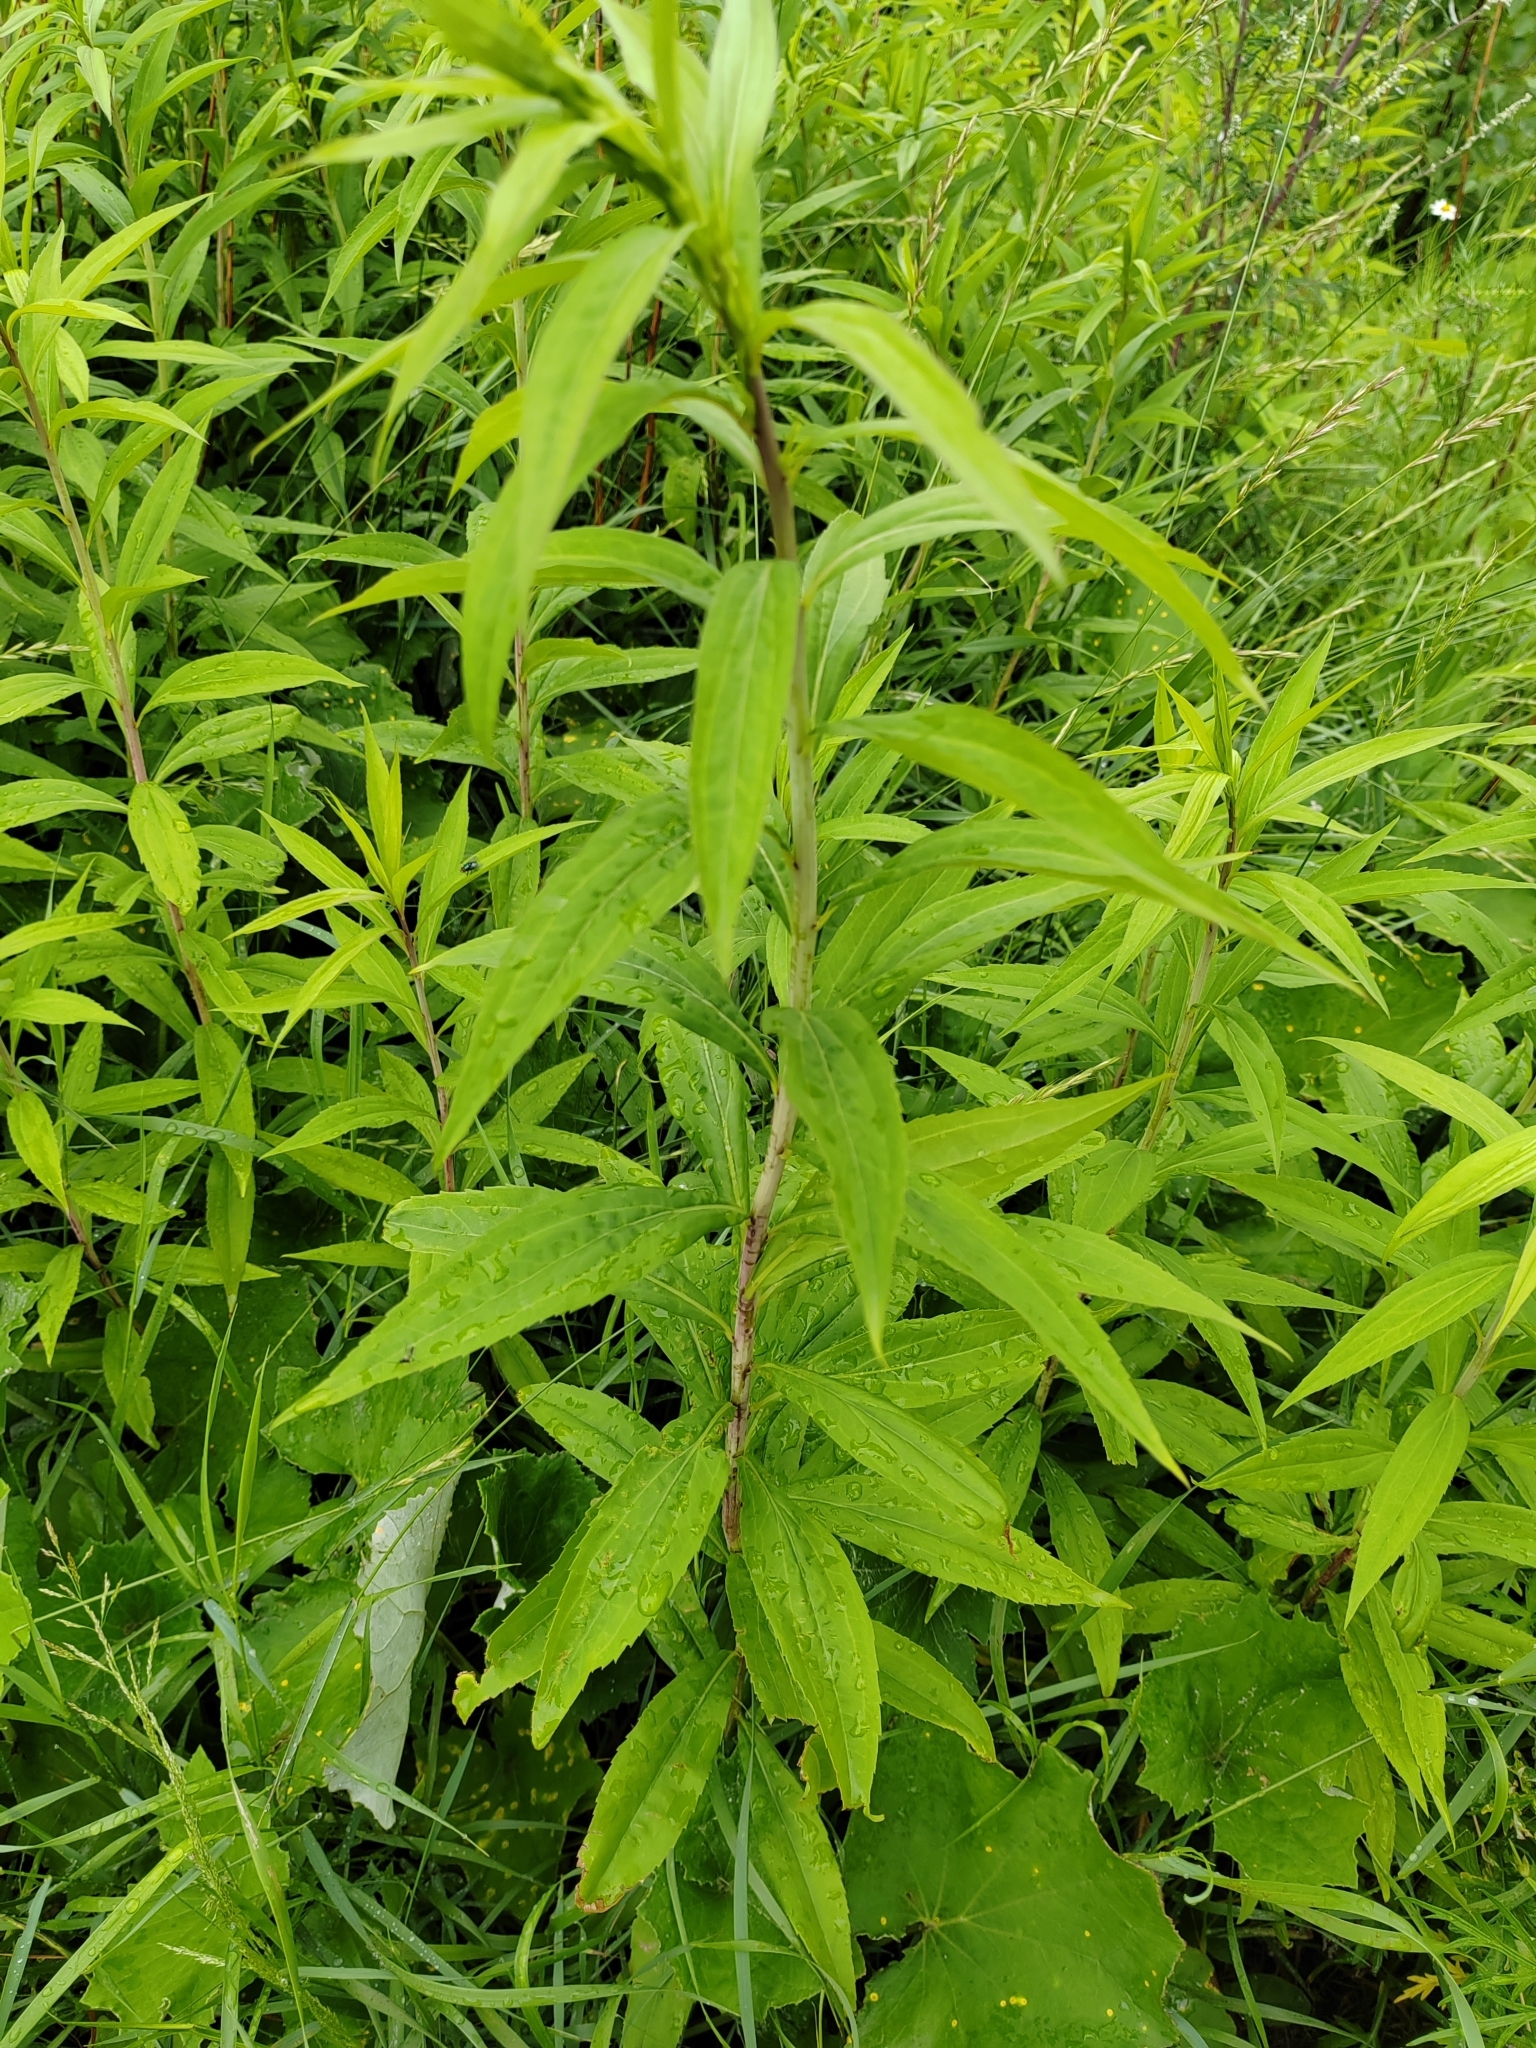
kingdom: Plantae
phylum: Tracheophyta
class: Magnoliopsida
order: Asterales
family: Asteraceae
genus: Solidago
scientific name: Solidago gigantea
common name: Giant goldenrod
